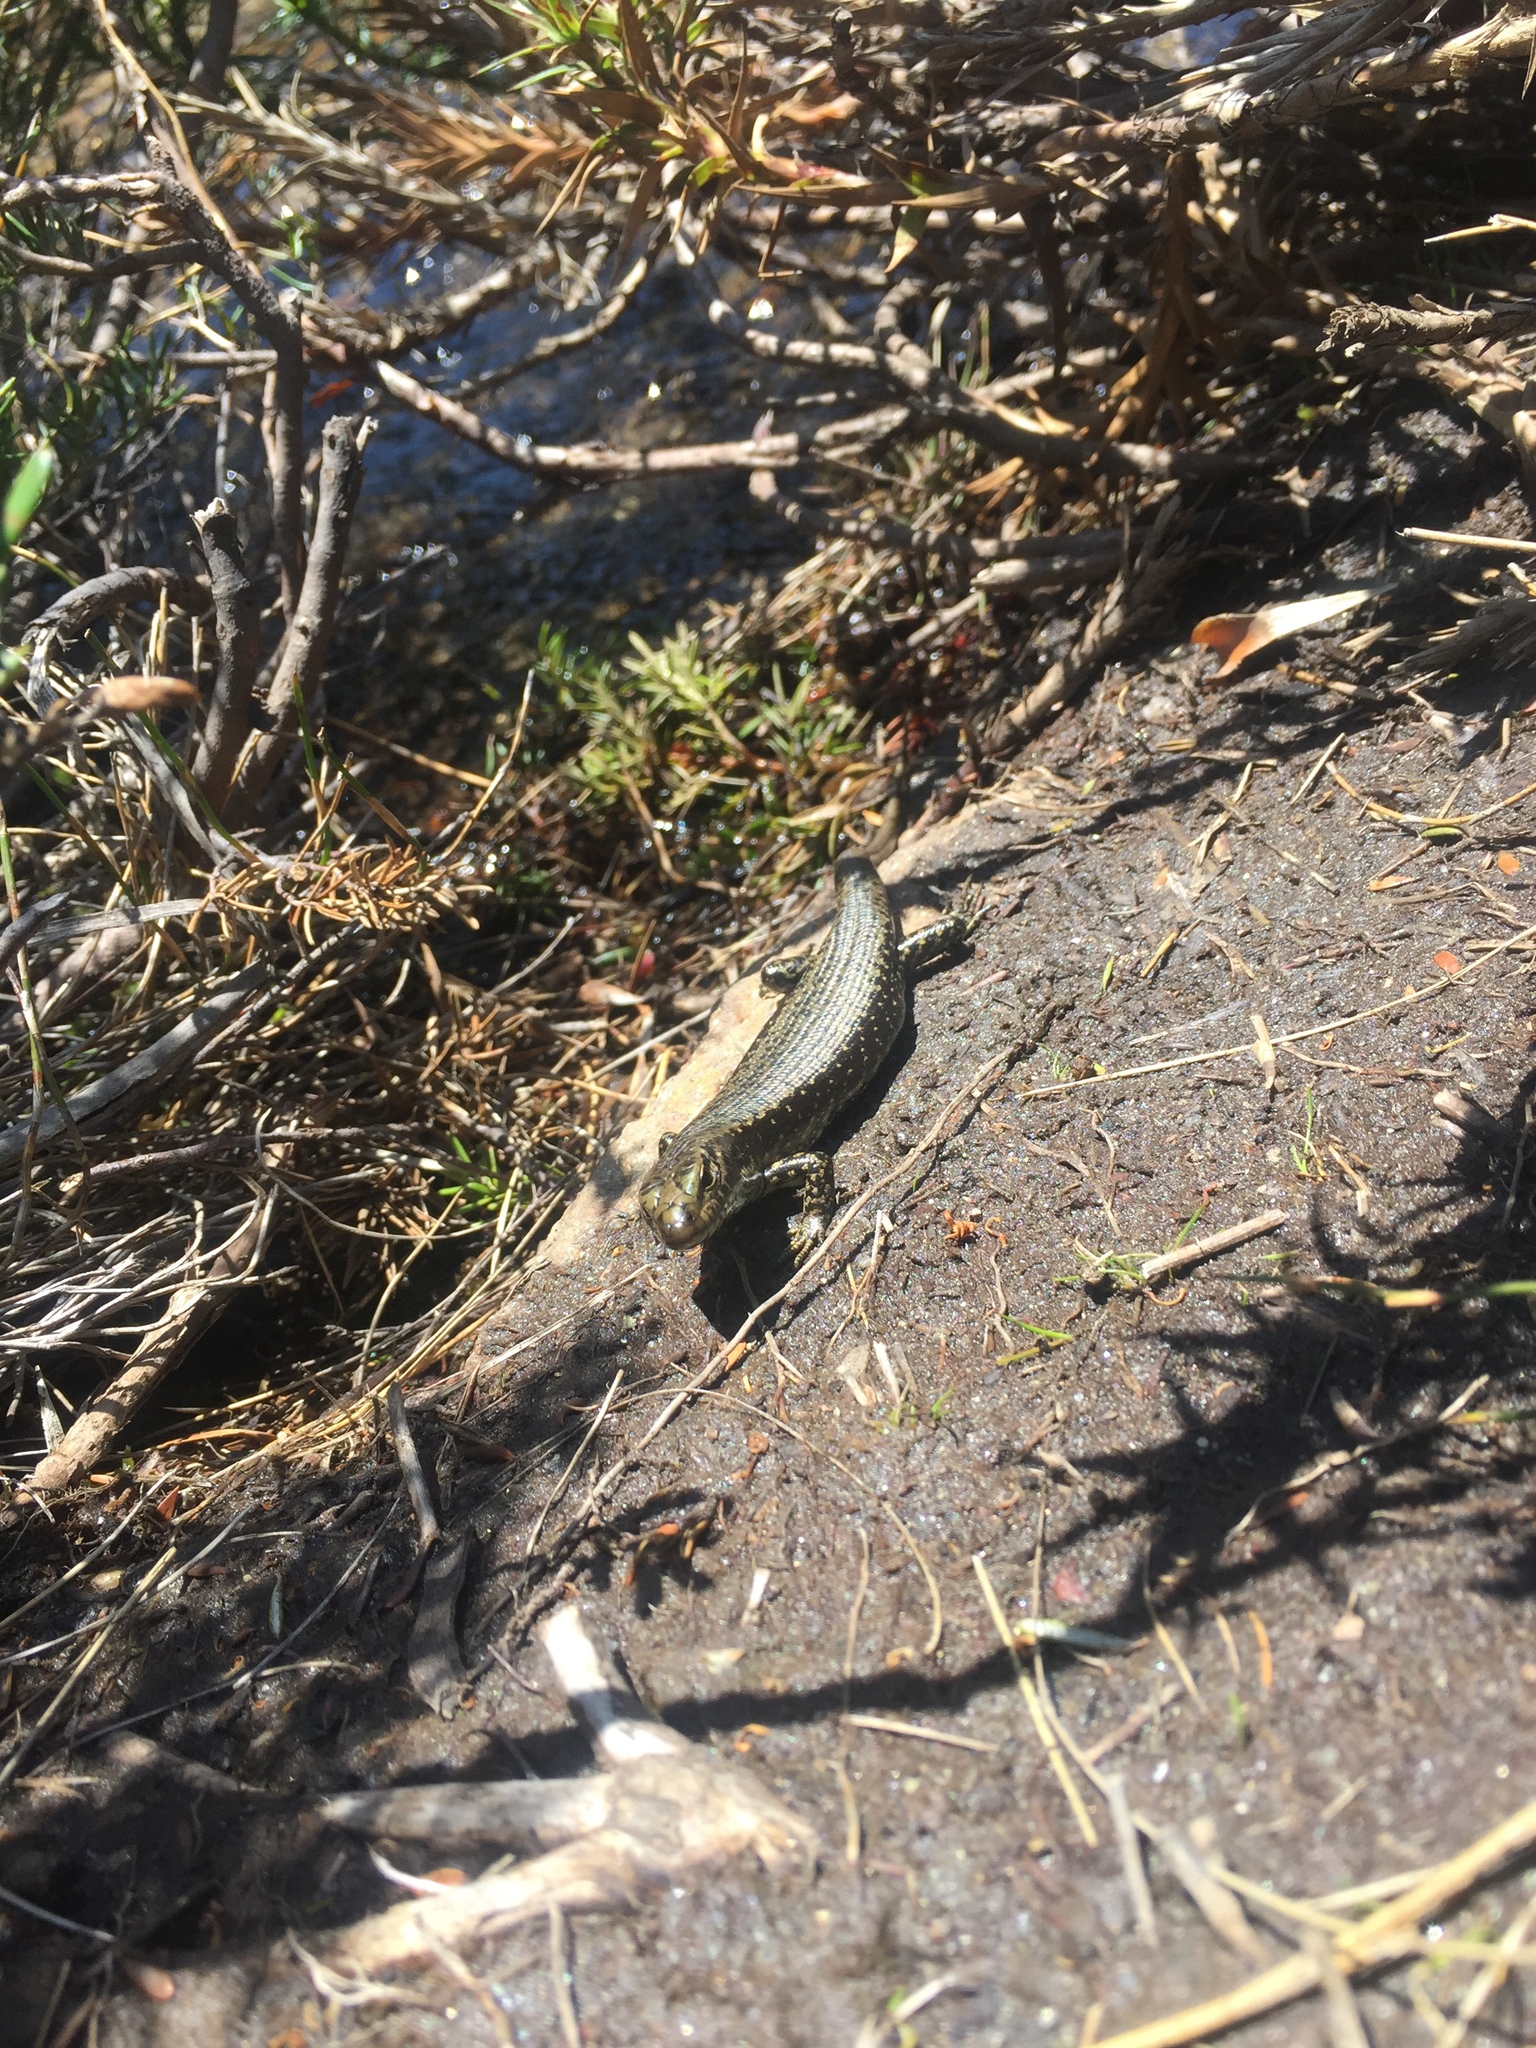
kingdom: Animalia
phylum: Chordata
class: Squamata
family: Scincidae
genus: Eulamprus
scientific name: Eulamprus kosciuskoi
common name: Alpine meadow-skink
